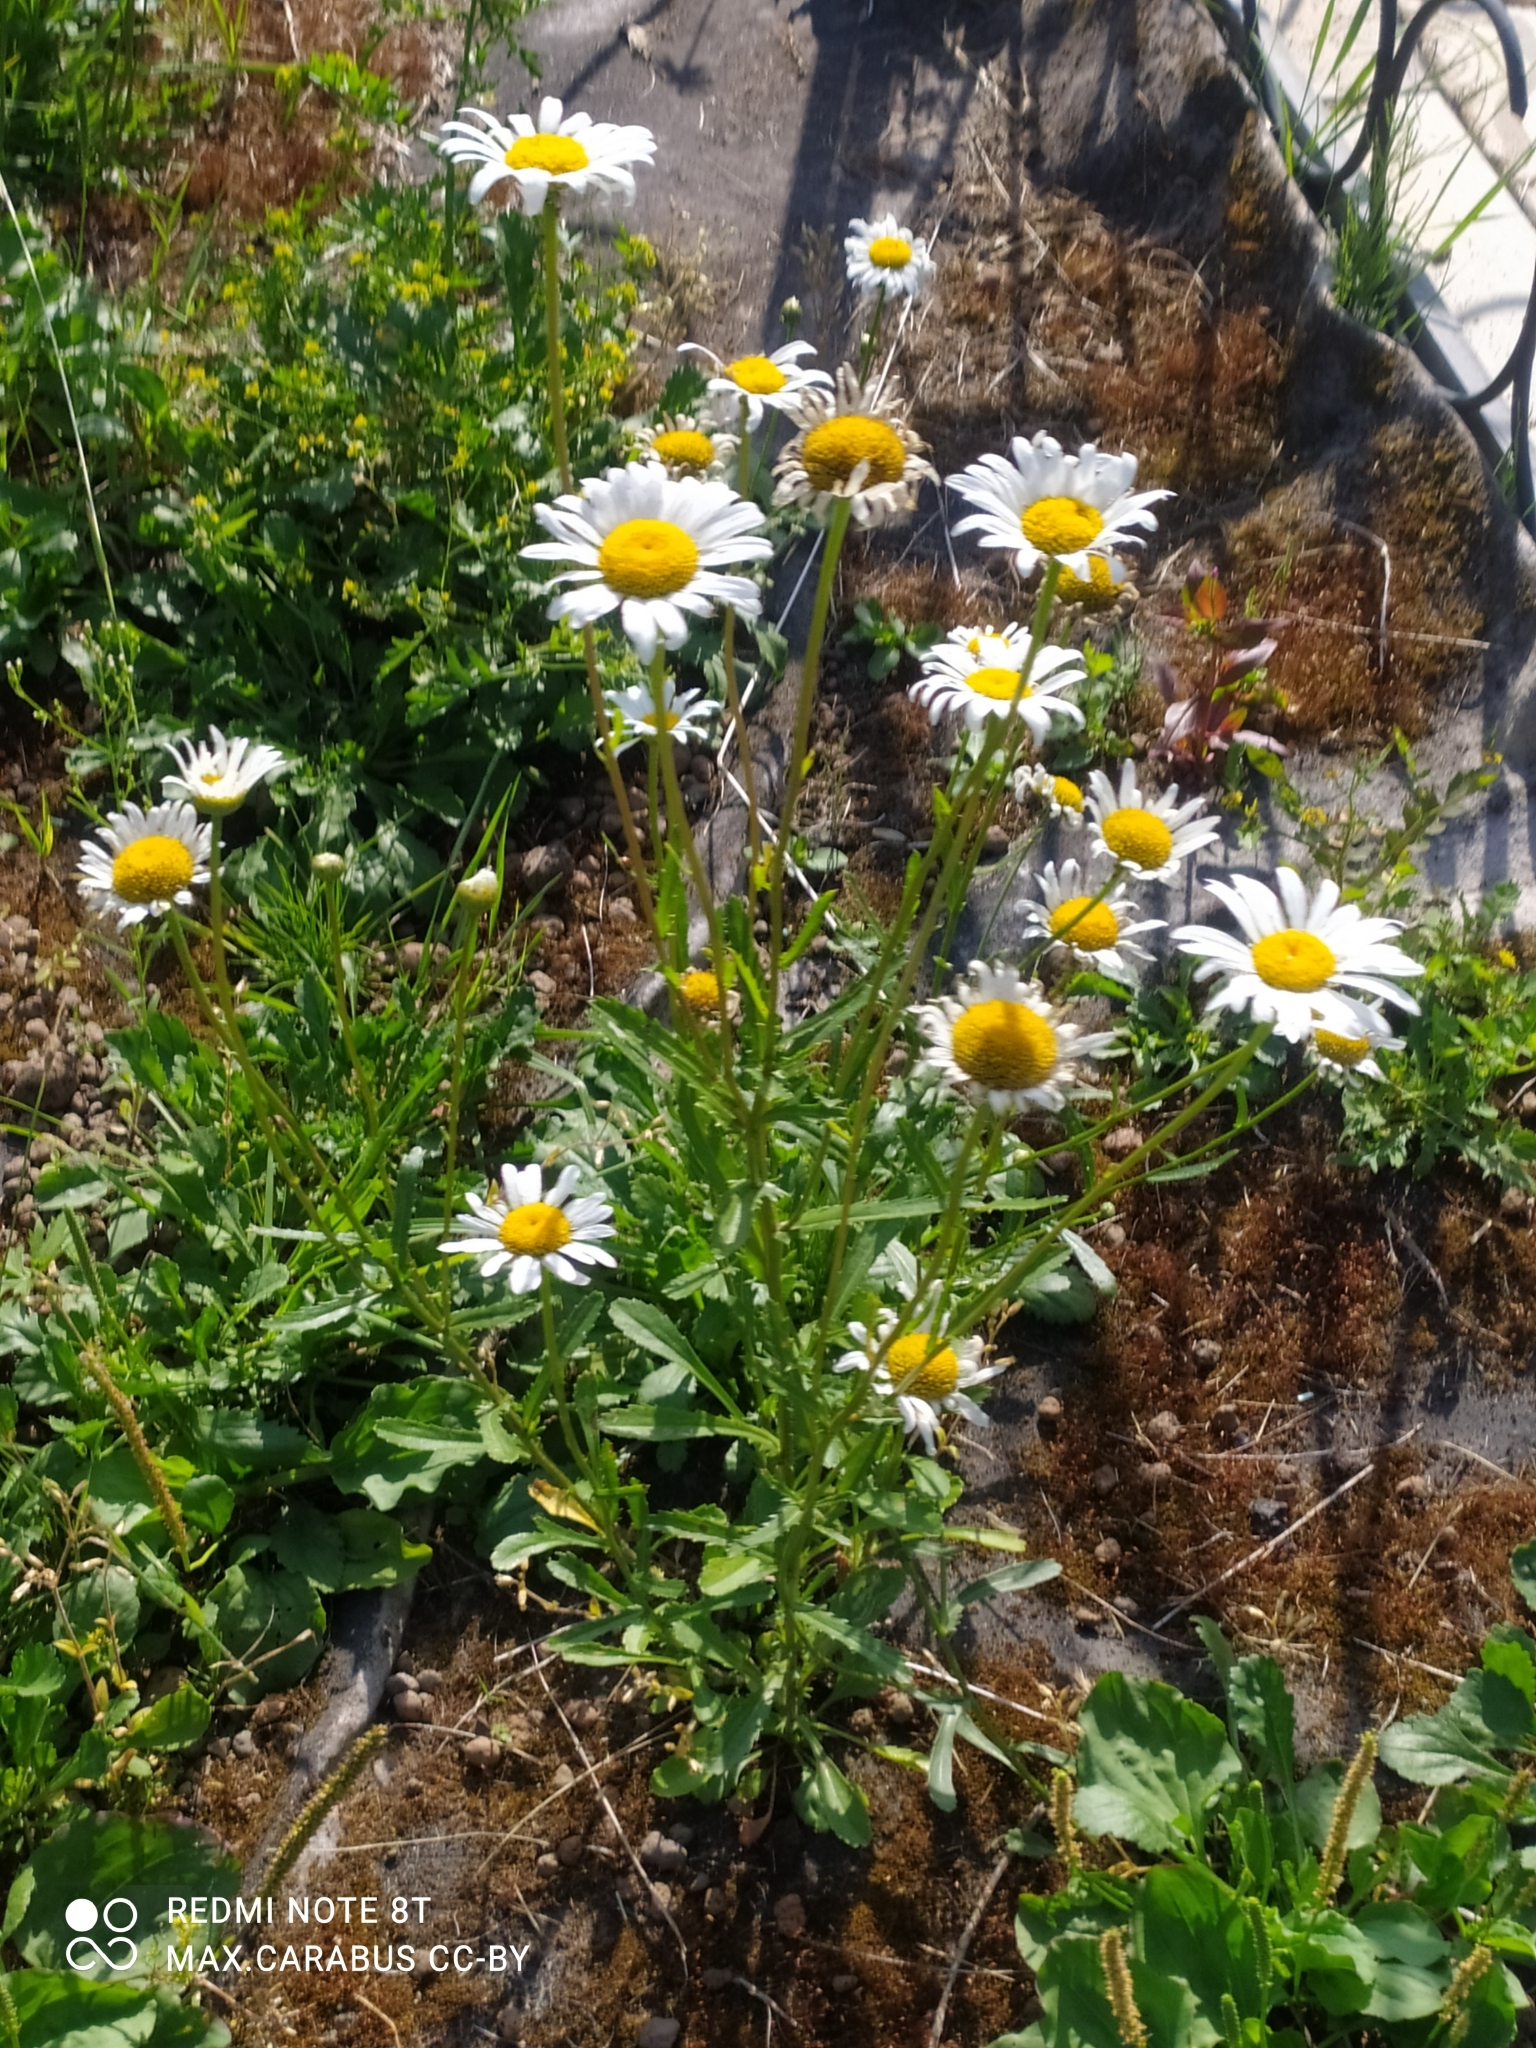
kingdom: Plantae
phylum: Tracheophyta
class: Magnoliopsida
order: Asterales
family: Asteraceae
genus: Leucanthemum
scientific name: Leucanthemum vulgare
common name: Oxeye daisy
